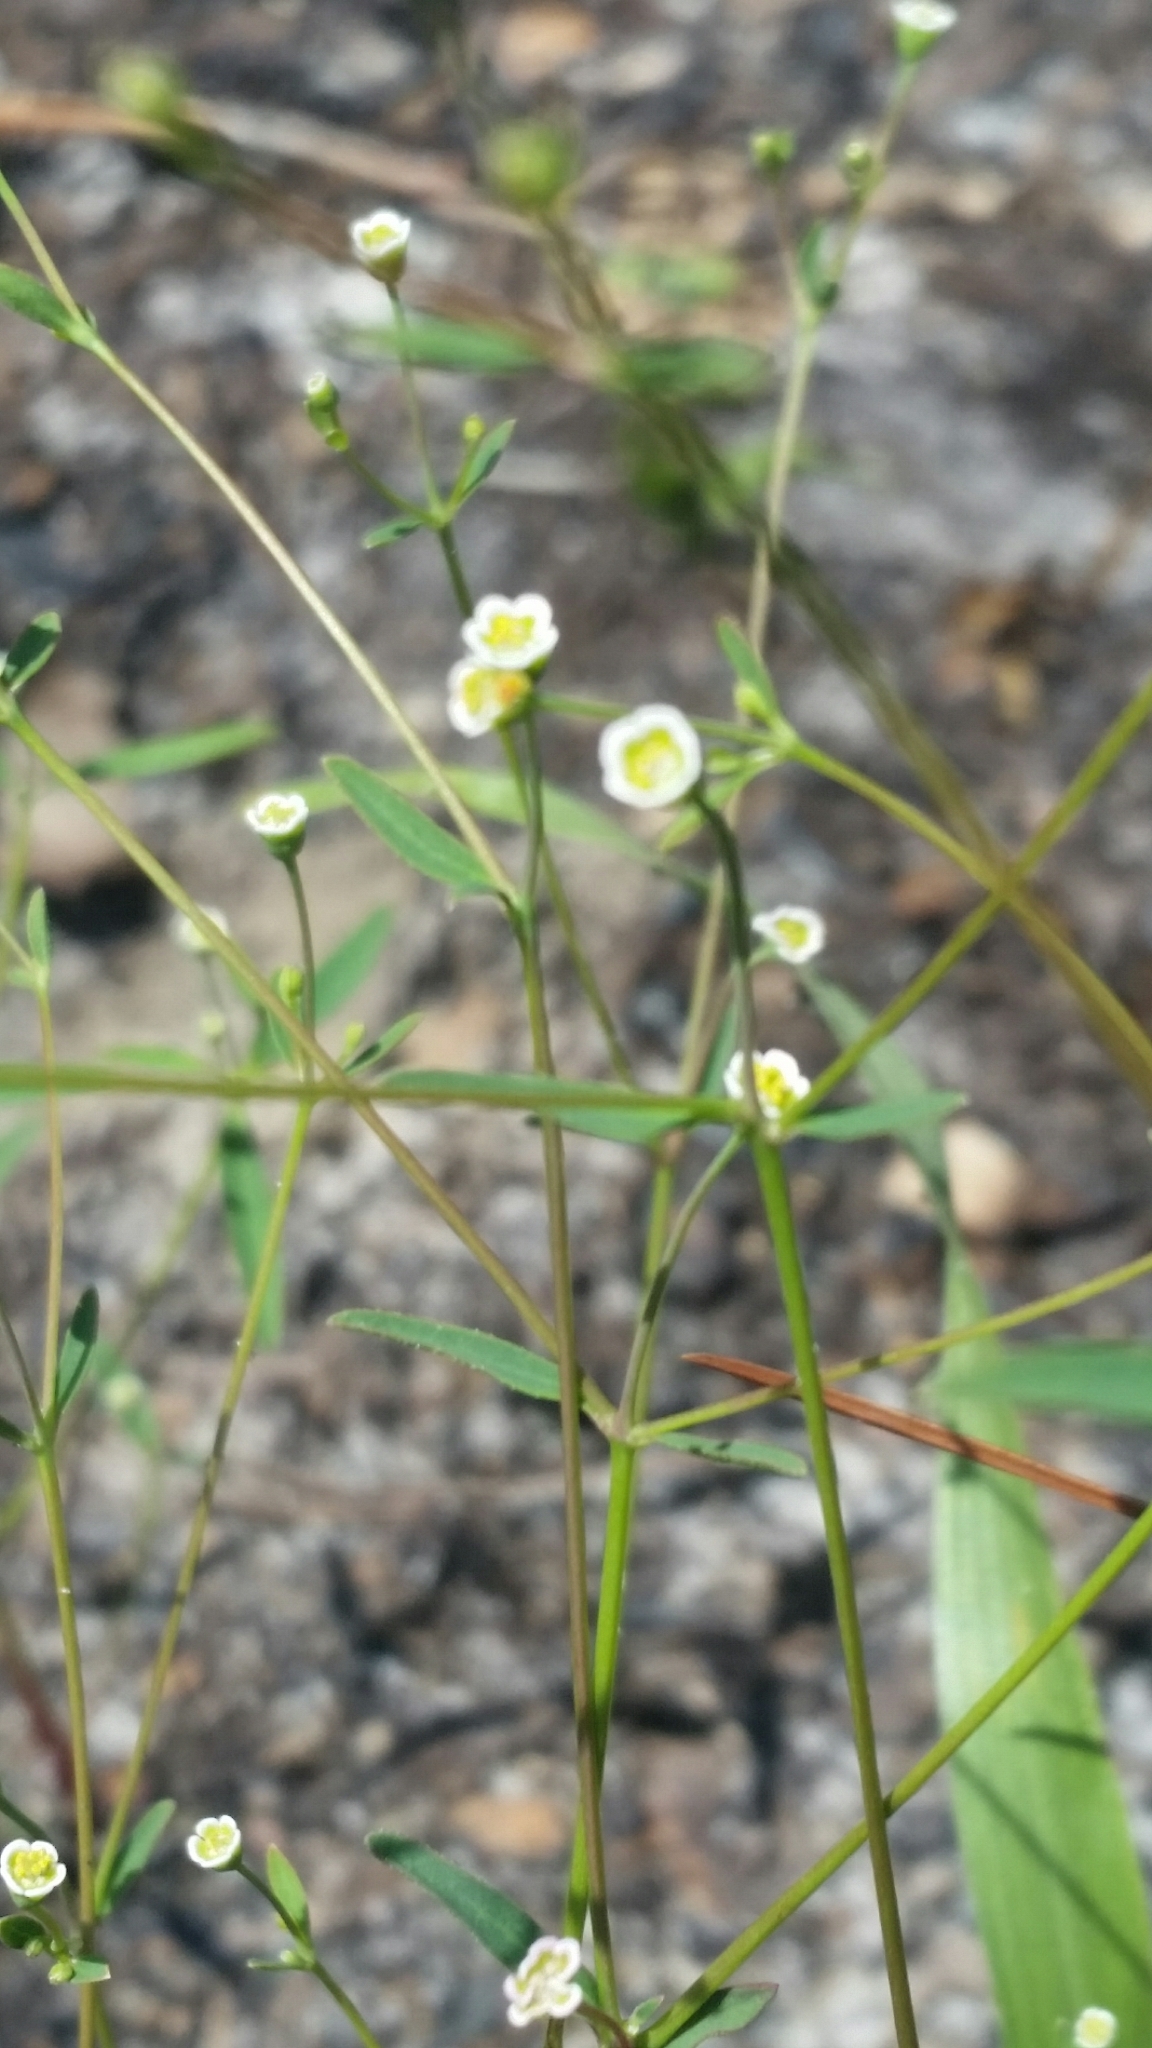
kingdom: Plantae
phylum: Tracheophyta
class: Magnoliopsida
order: Malpighiales
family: Euphorbiaceae
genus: Euphorbia
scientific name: Euphorbia curtisii
